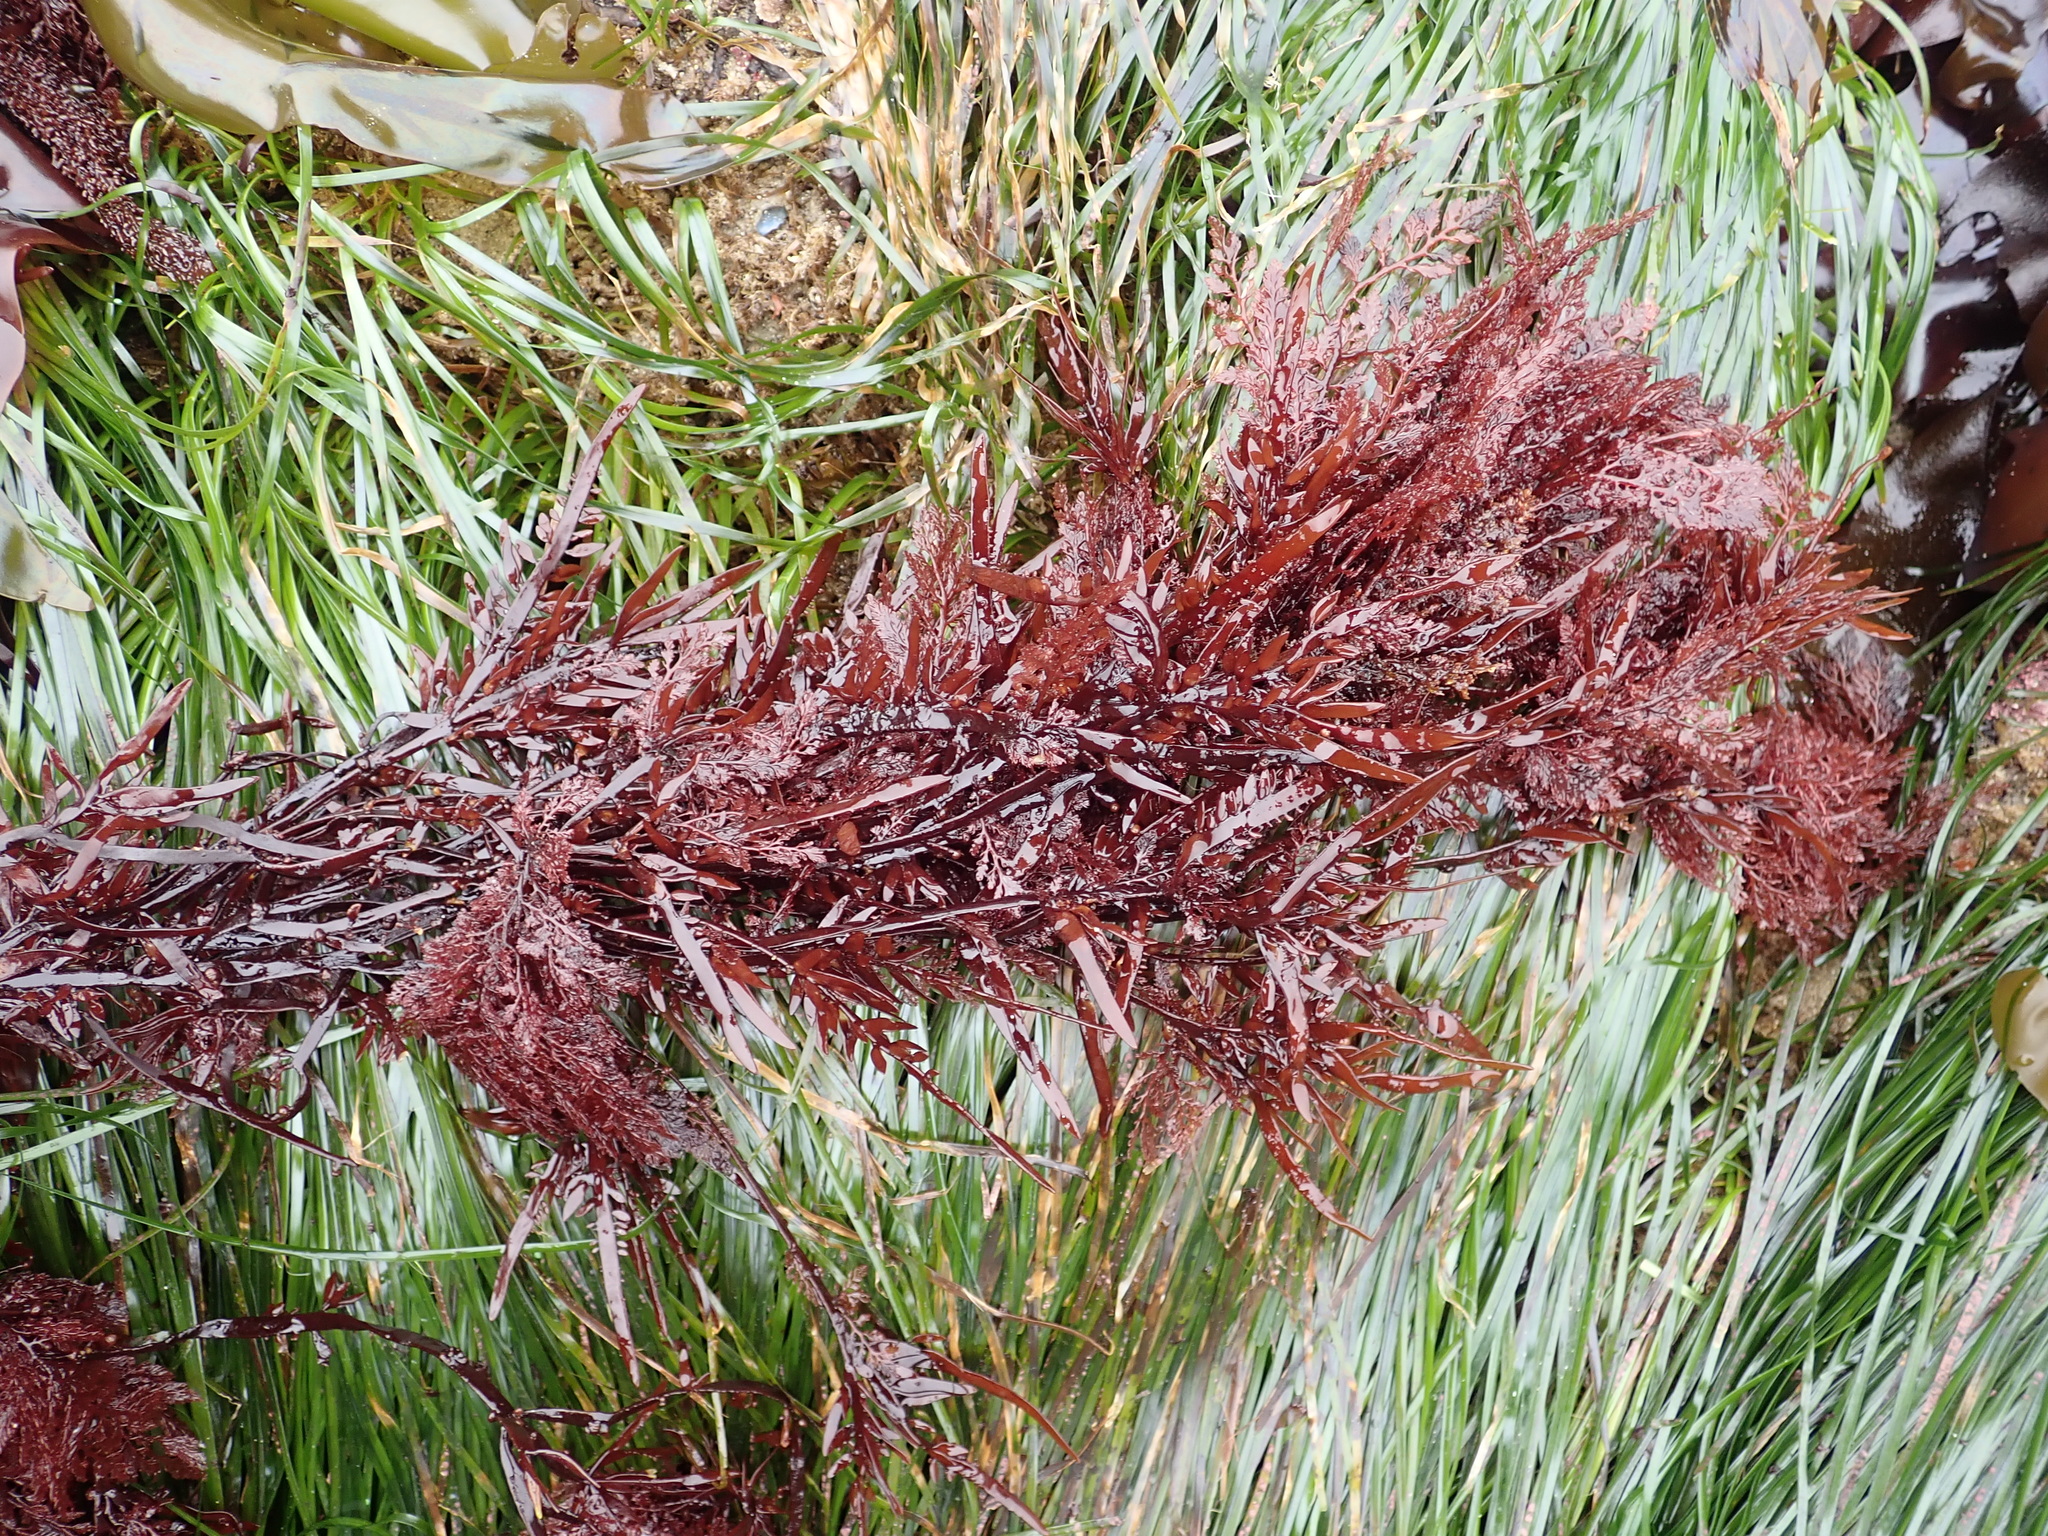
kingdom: Plantae
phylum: Rhodophyta
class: Florideophyceae
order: Ceramiales
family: Ceramiaceae
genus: Microcladia
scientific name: Microcladia coulteri
